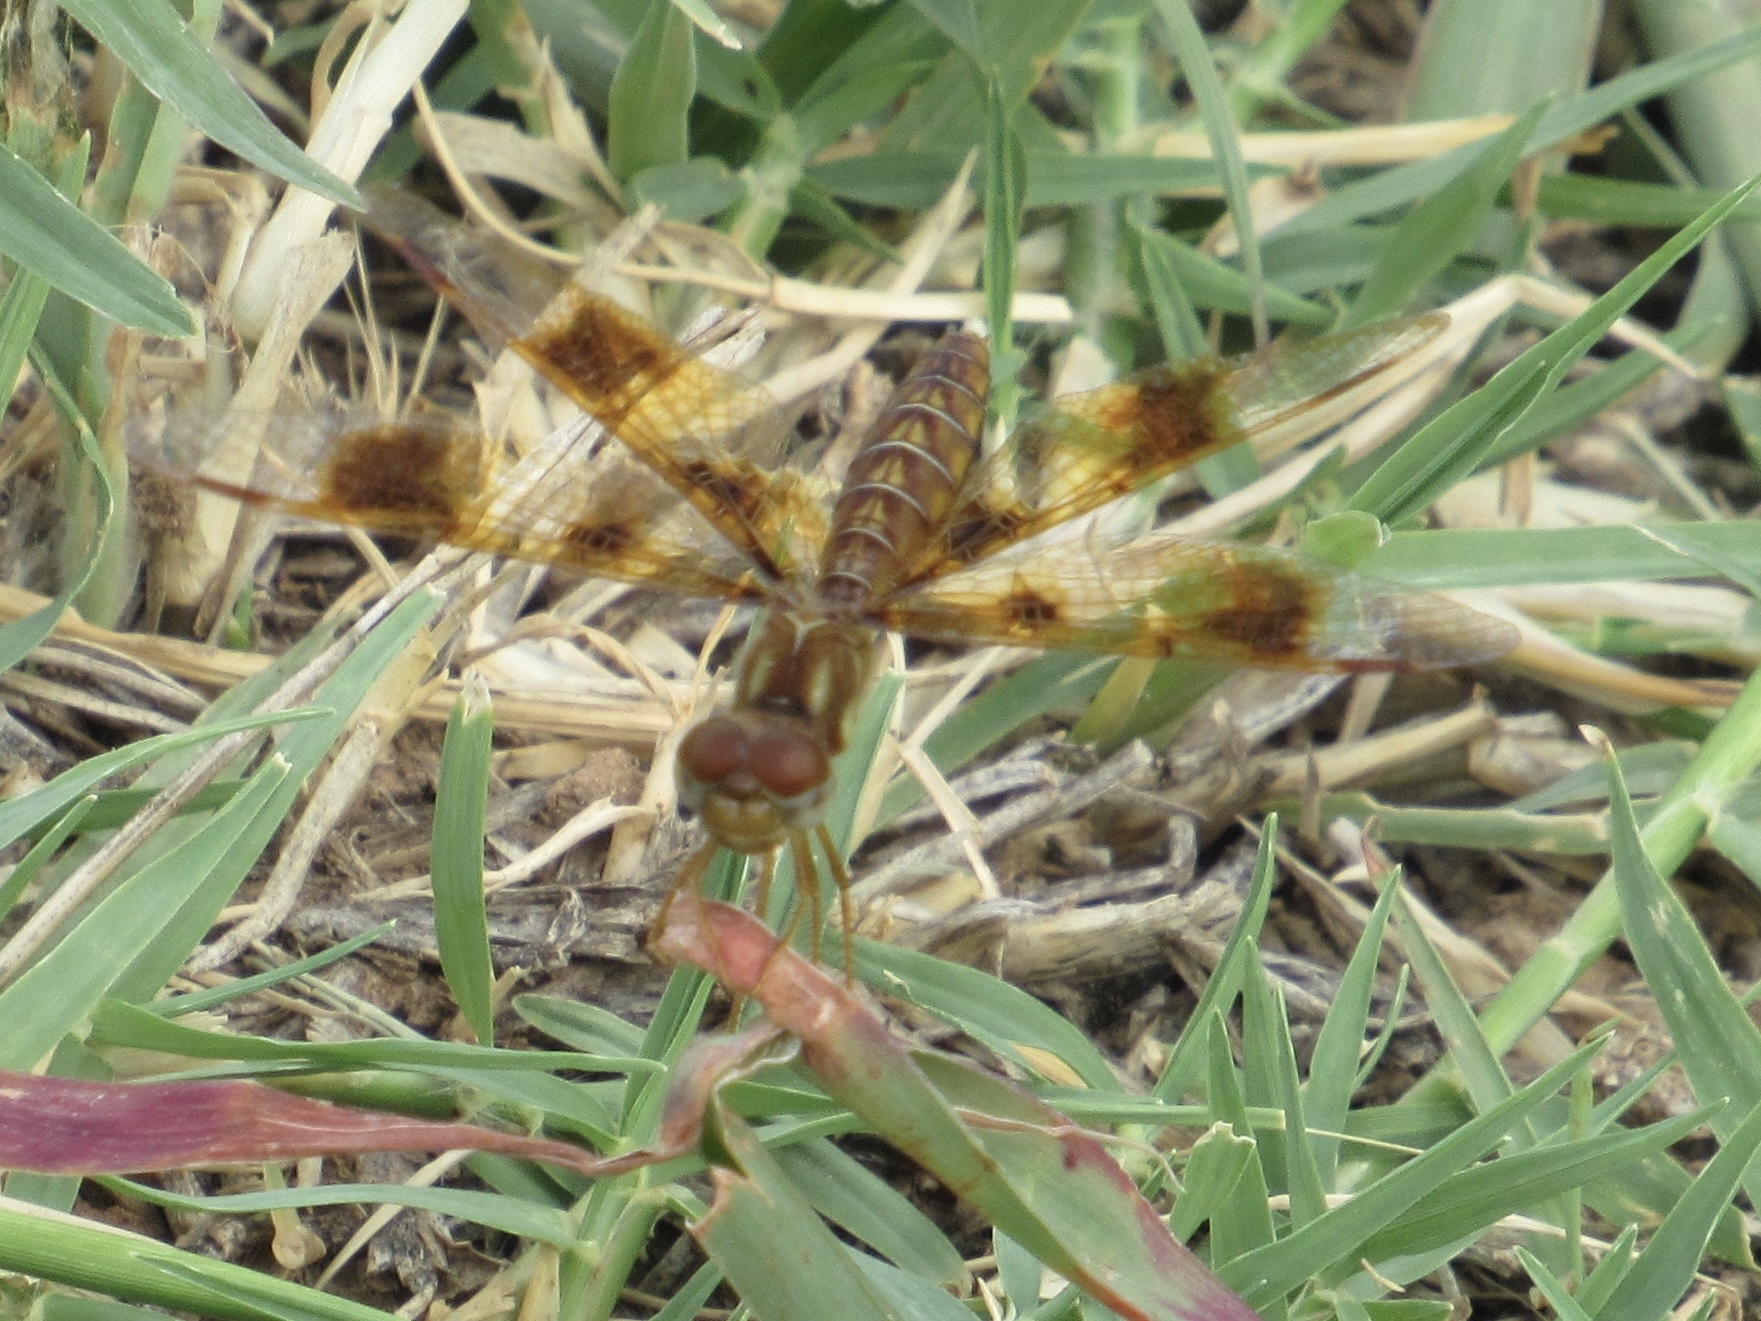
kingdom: Animalia
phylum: Arthropoda
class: Insecta
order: Odonata
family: Libellulidae
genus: Perithemis
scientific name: Perithemis tenera
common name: Eastern amberwing
